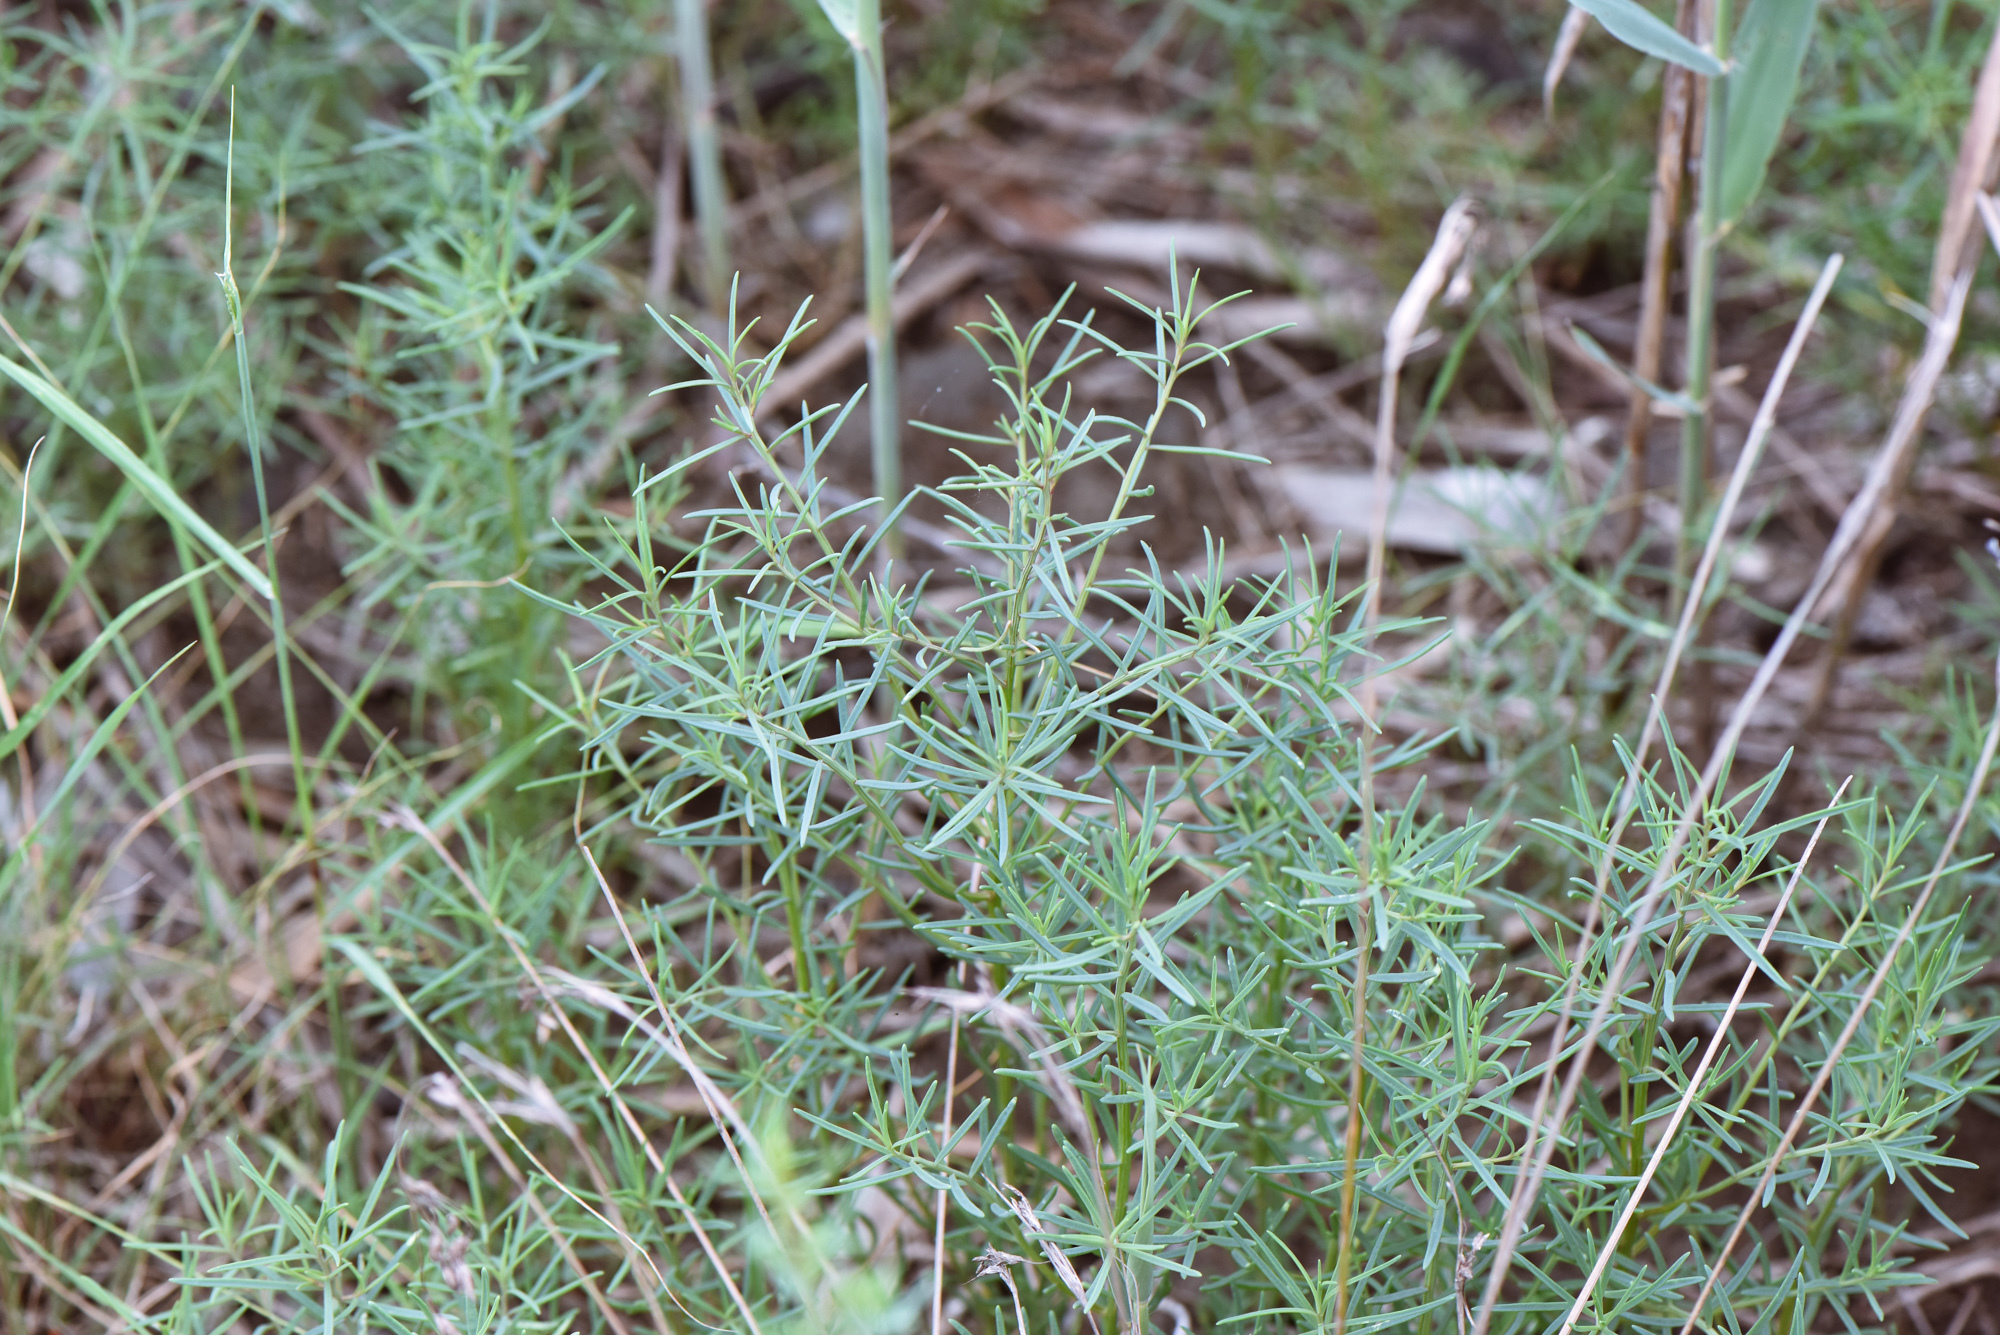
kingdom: Plantae
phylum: Tracheophyta
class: Magnoliopsida
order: Caryophyllales
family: Amaranthaceae
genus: Suaeda
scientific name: Suaeda maritima
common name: Annual sea-blite
